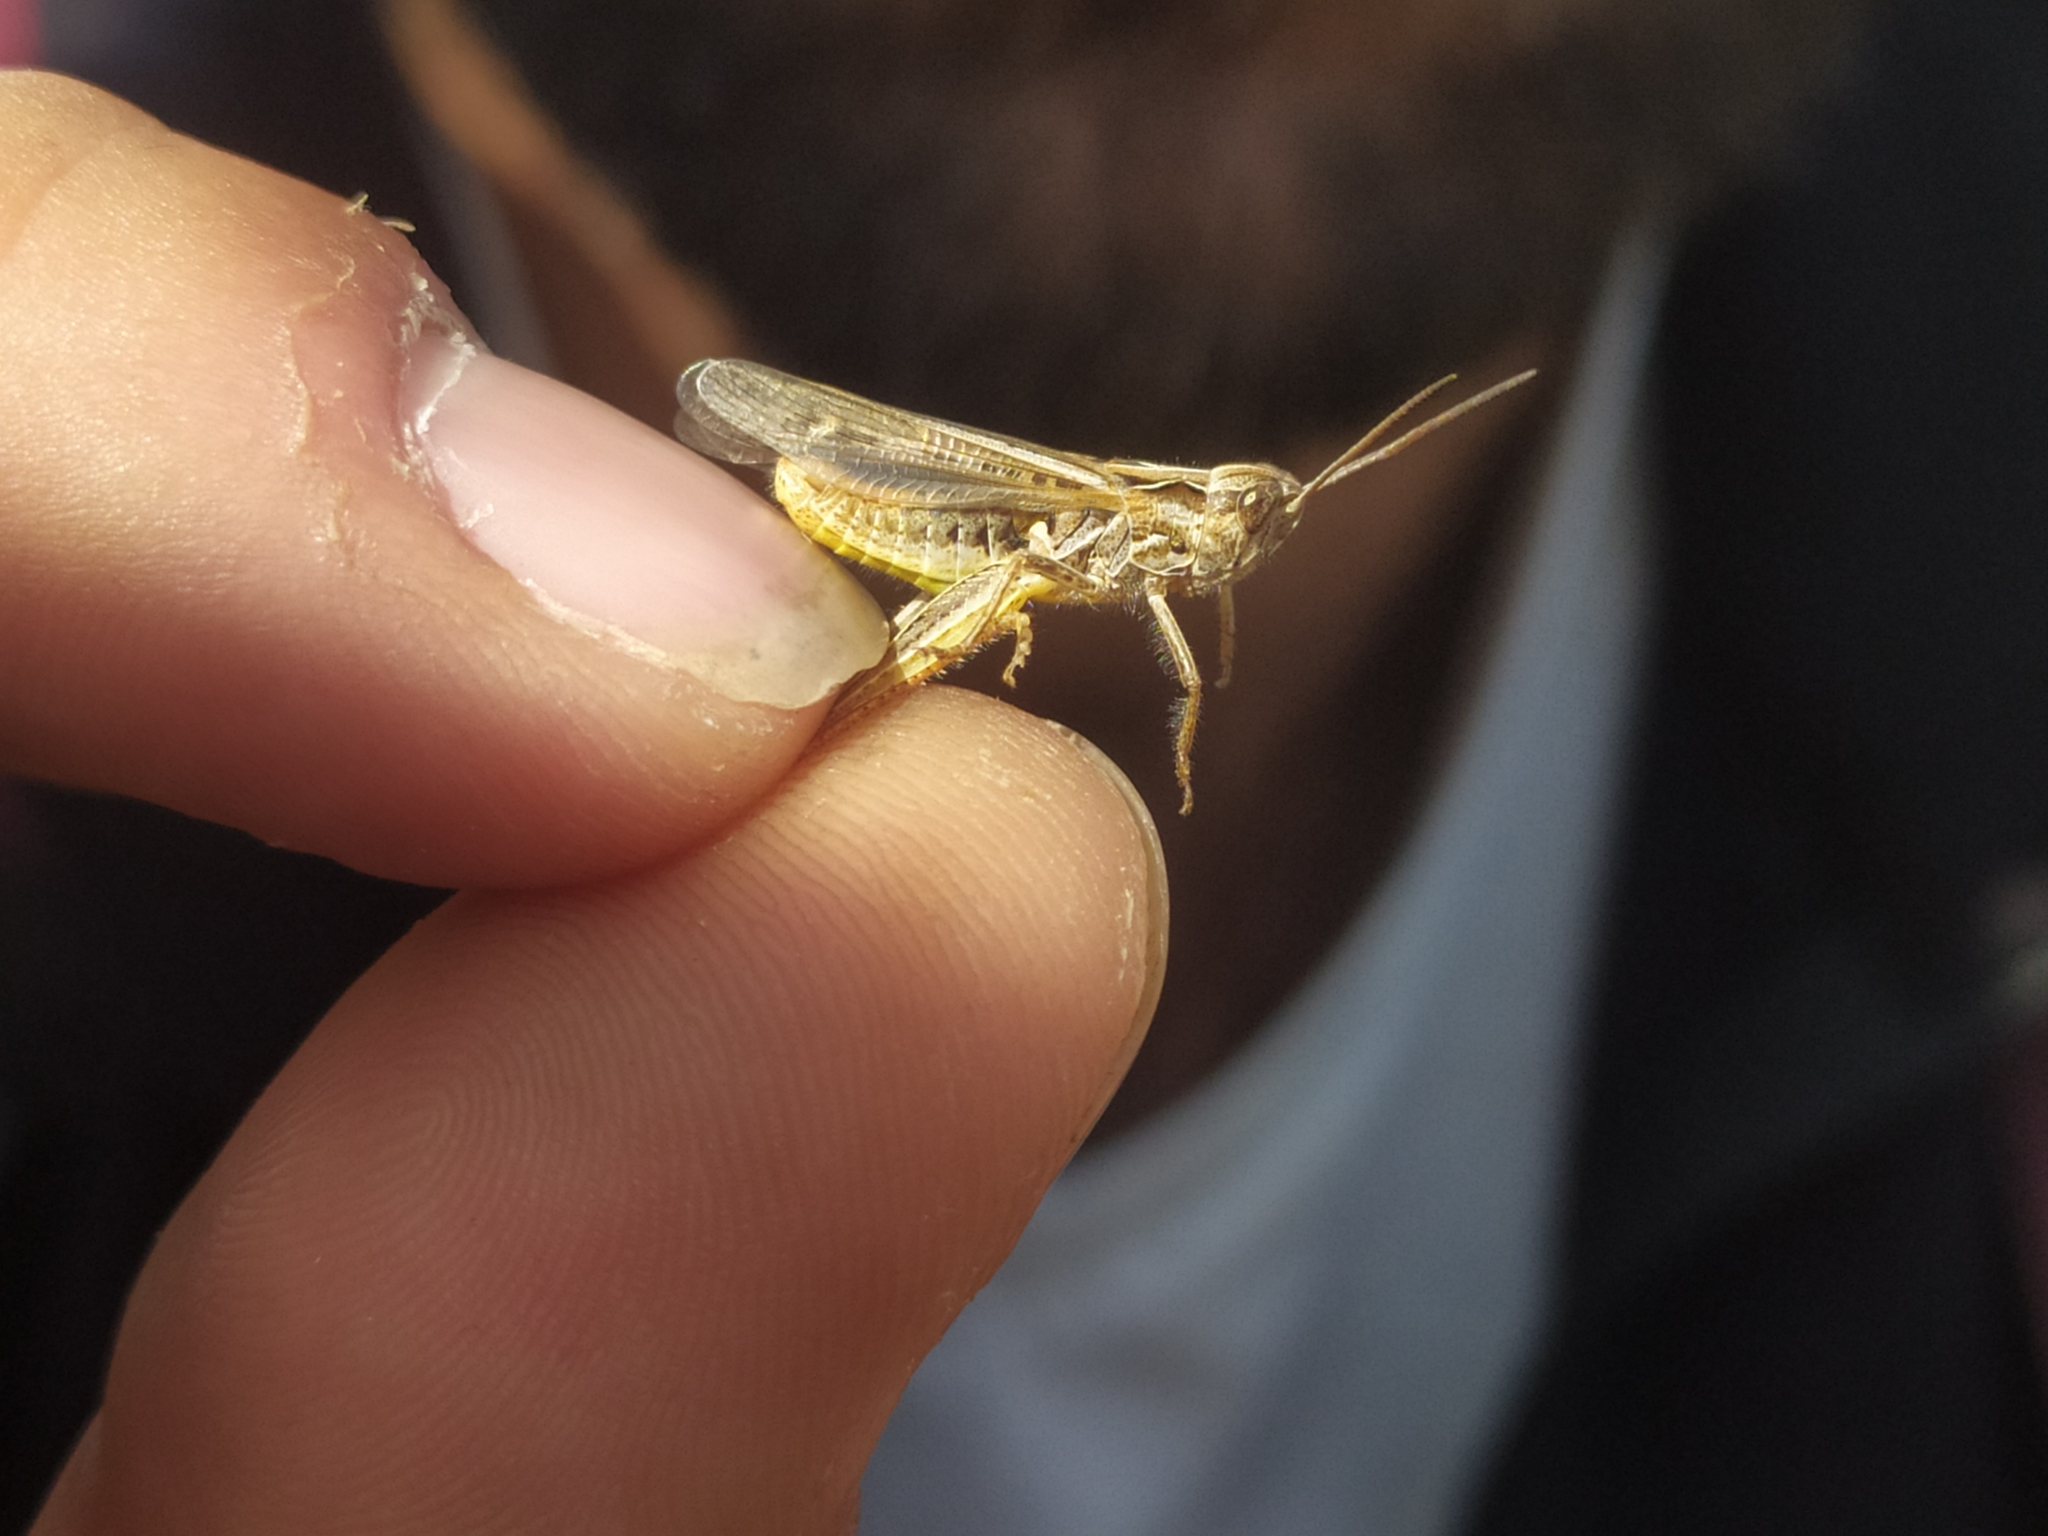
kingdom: Animalia
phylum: Arthropoda
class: Insecta
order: Orthoptera
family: Acrididae
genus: Chorthippus
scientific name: Chorthippus biguttulus
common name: Bow-winged grasshopper
